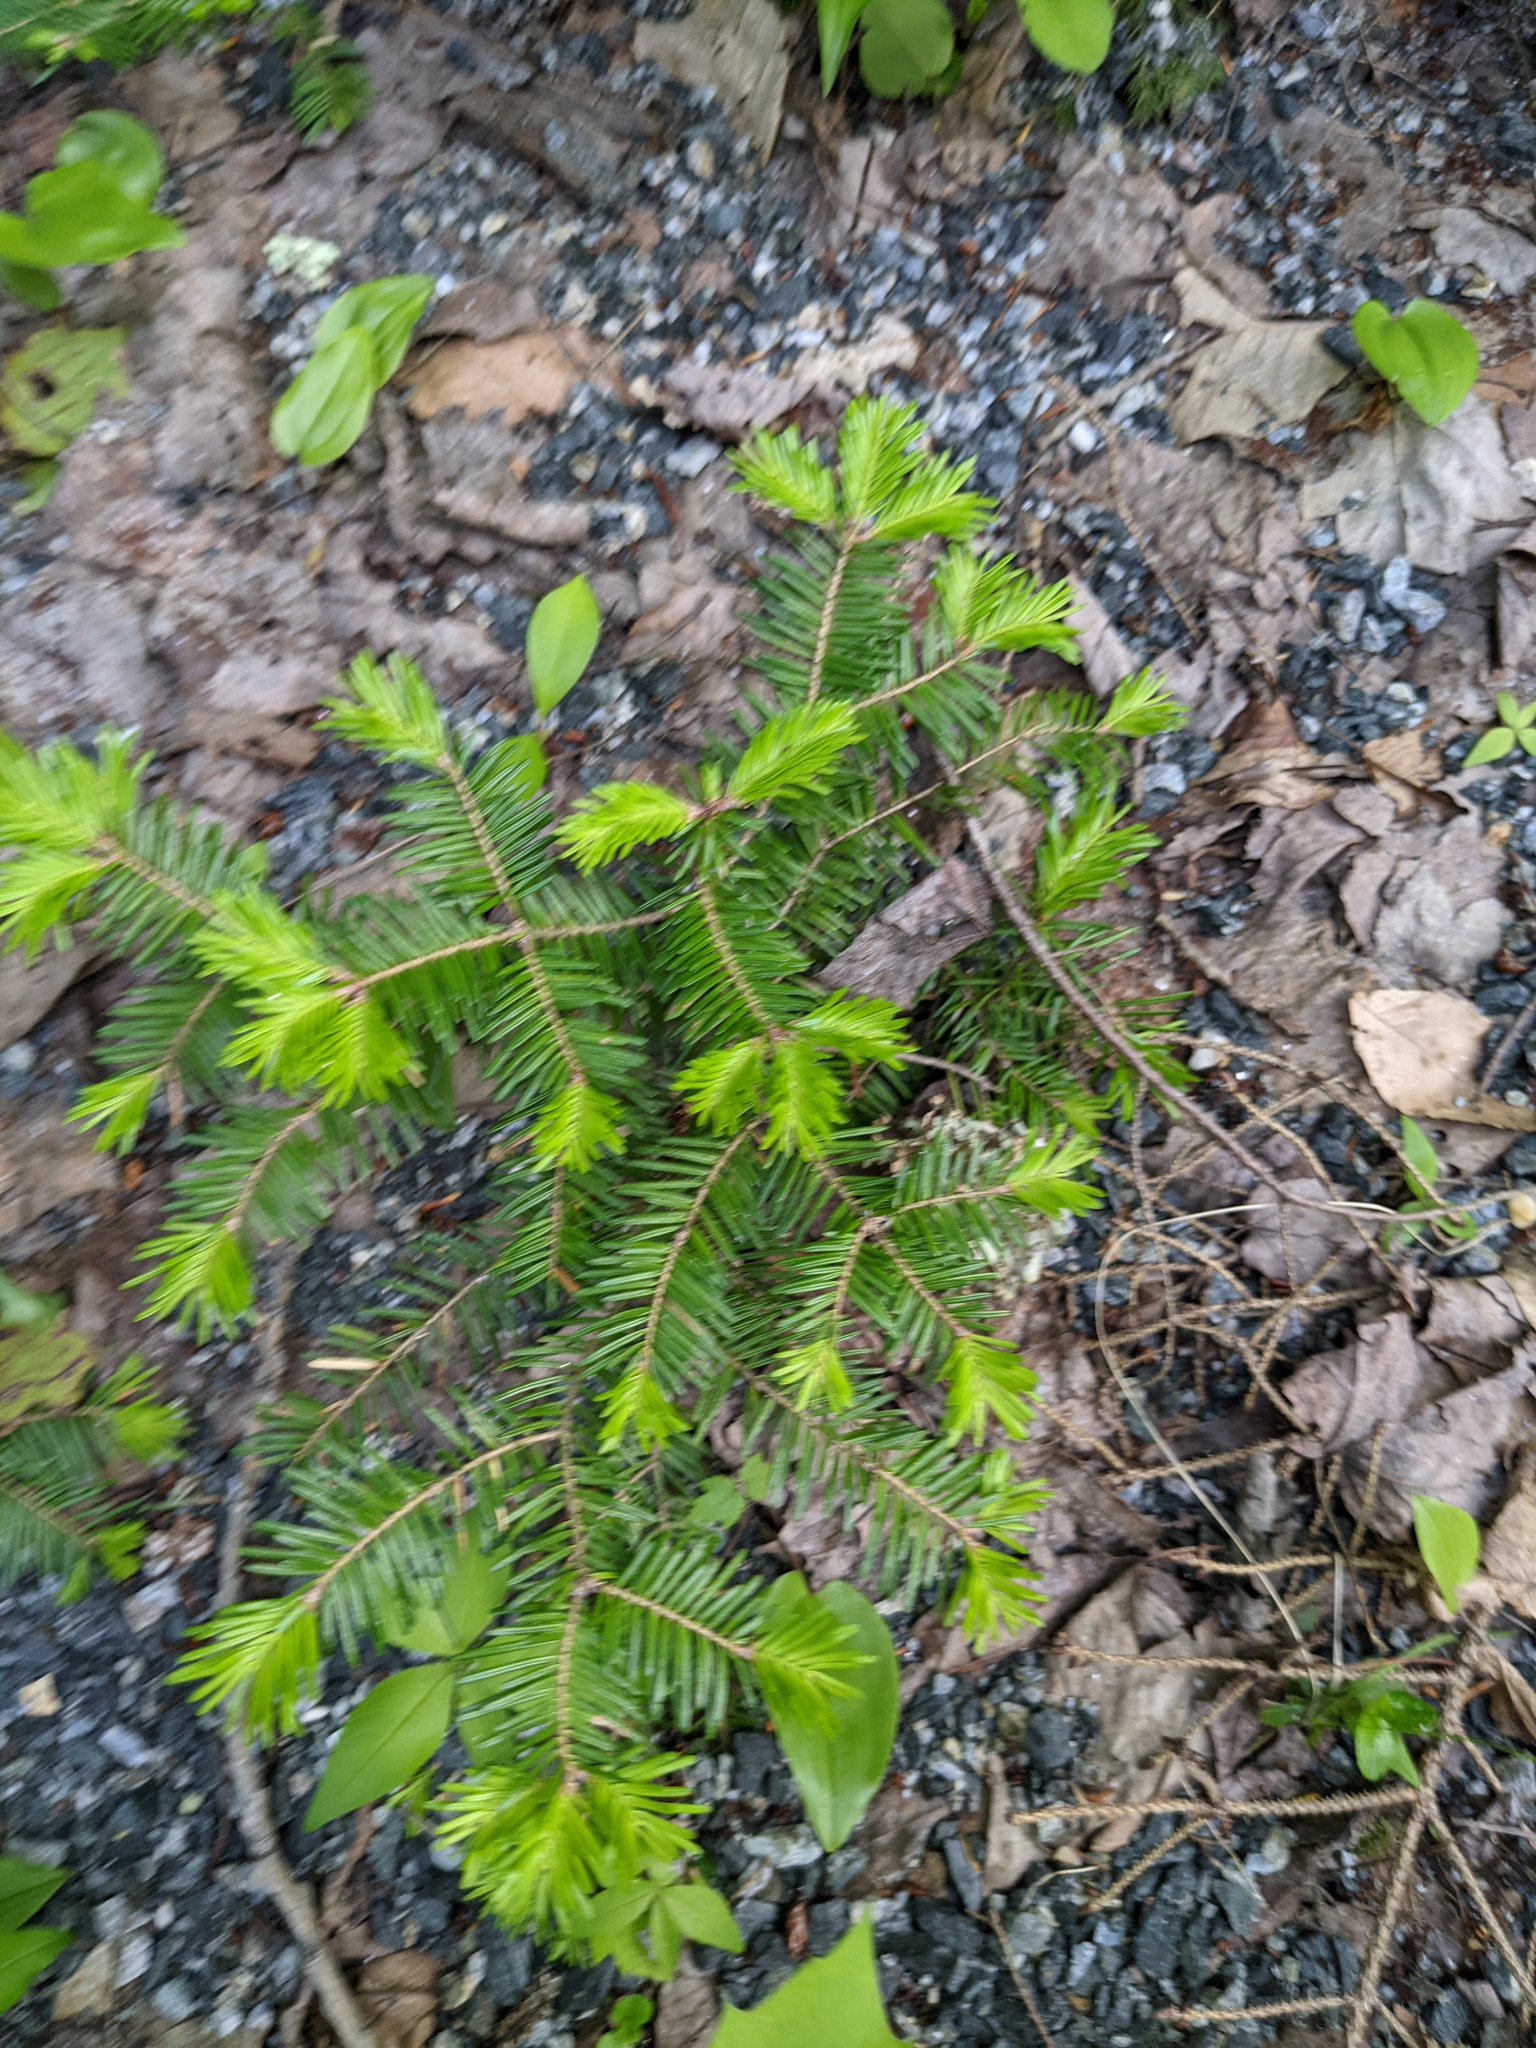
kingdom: Plantae
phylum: Tracheophyta
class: Pinopsida
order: Pinales
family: Pinaceae
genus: Abies
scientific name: Abies balsamea
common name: Balsam fir
